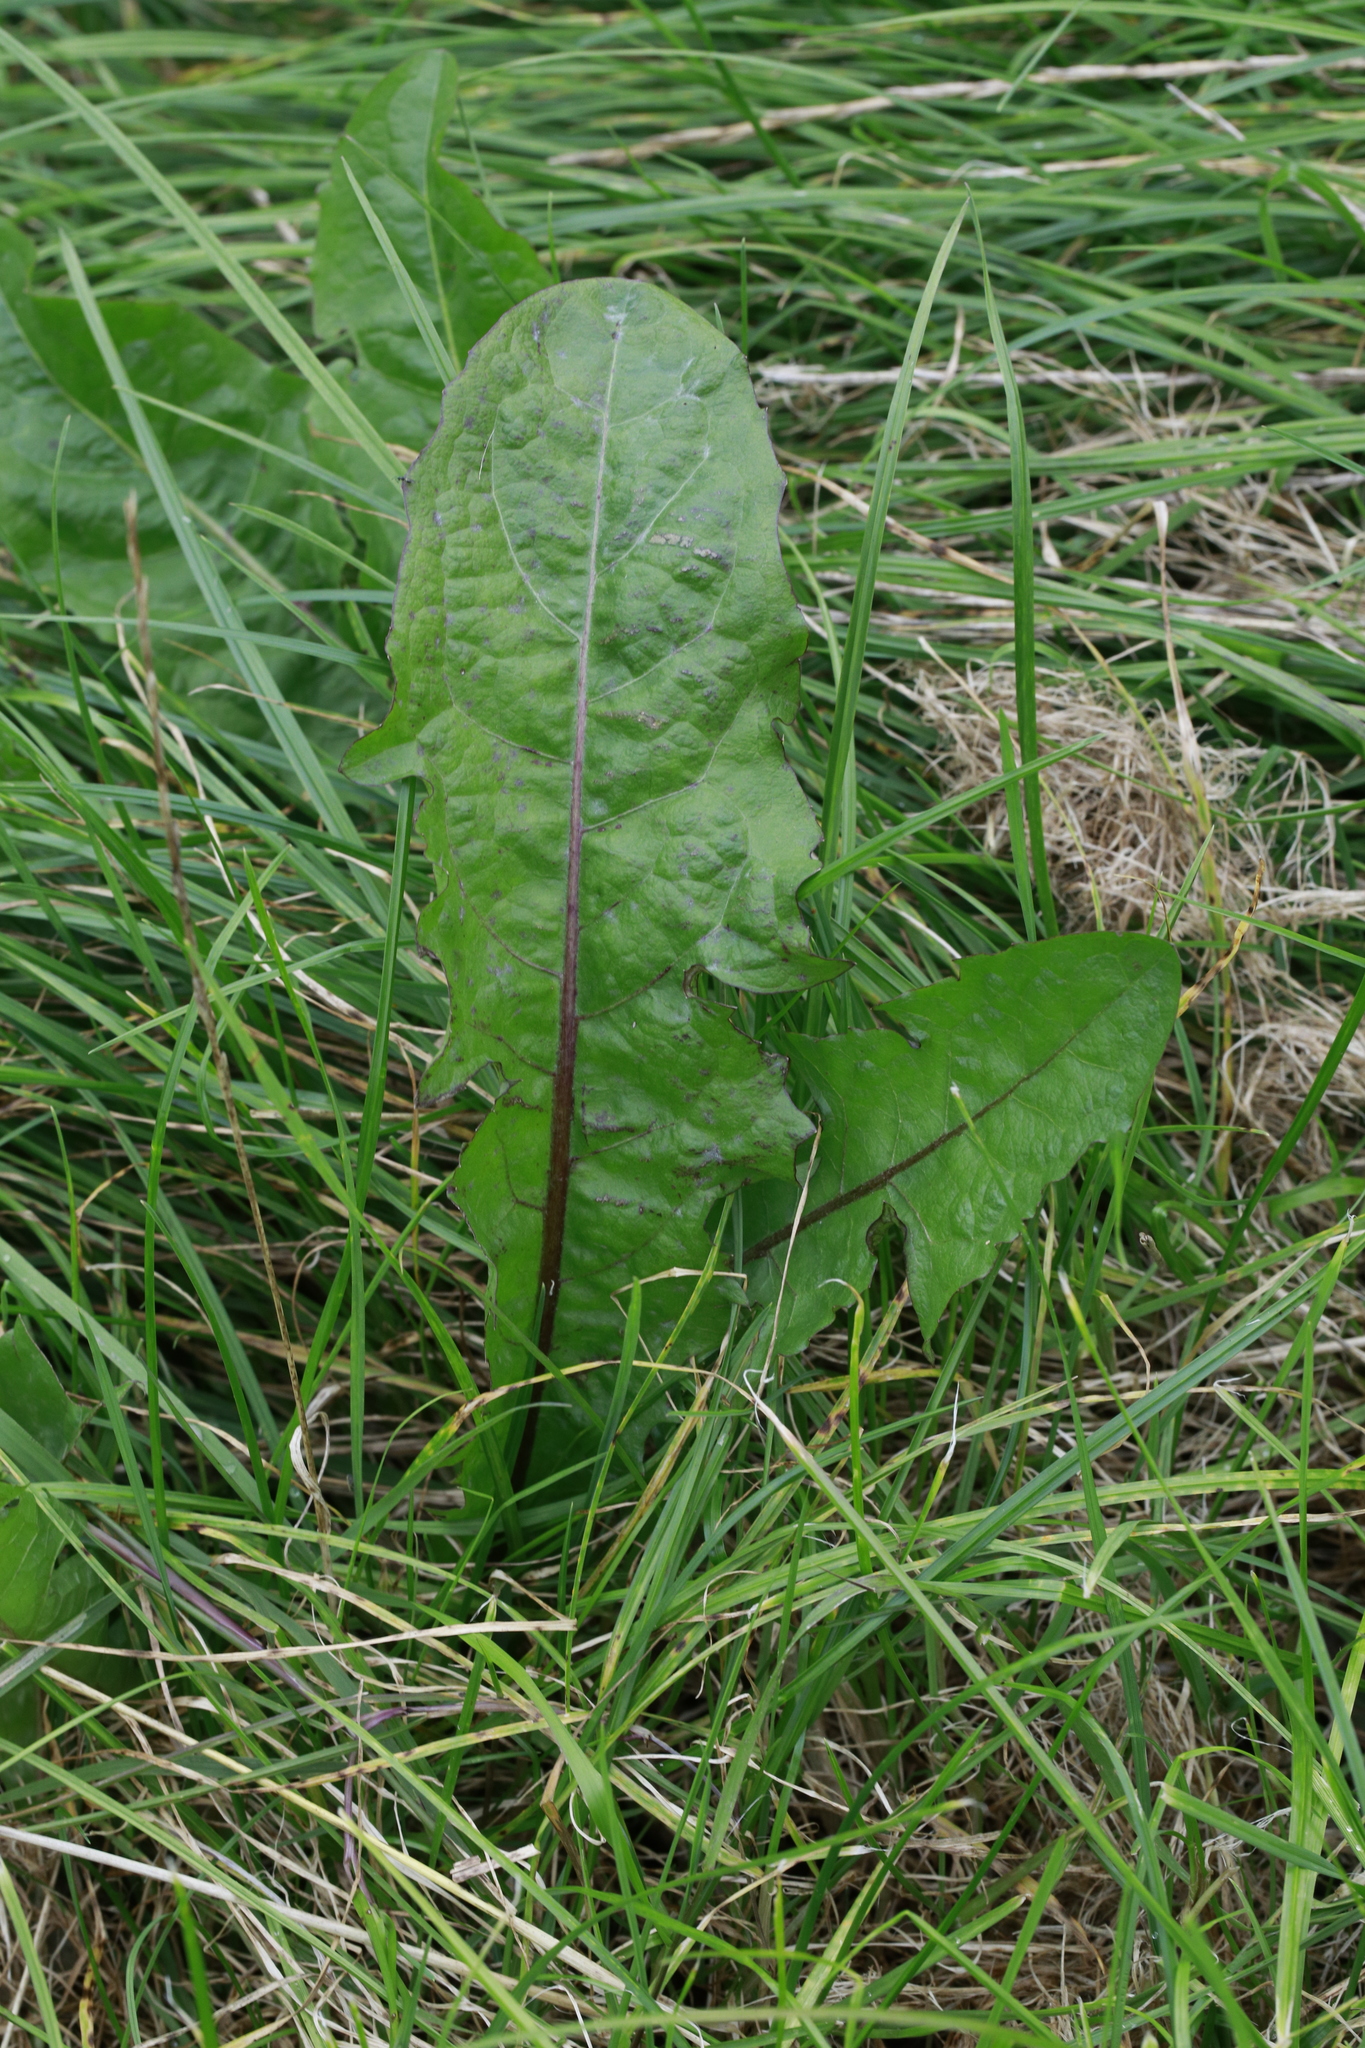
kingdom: Plantae
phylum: Tracheophyta
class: Magnoliopsida
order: Asterales
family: Asteraceae
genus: Taraxacum
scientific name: Taraxacum officinale
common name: Common dandelion
